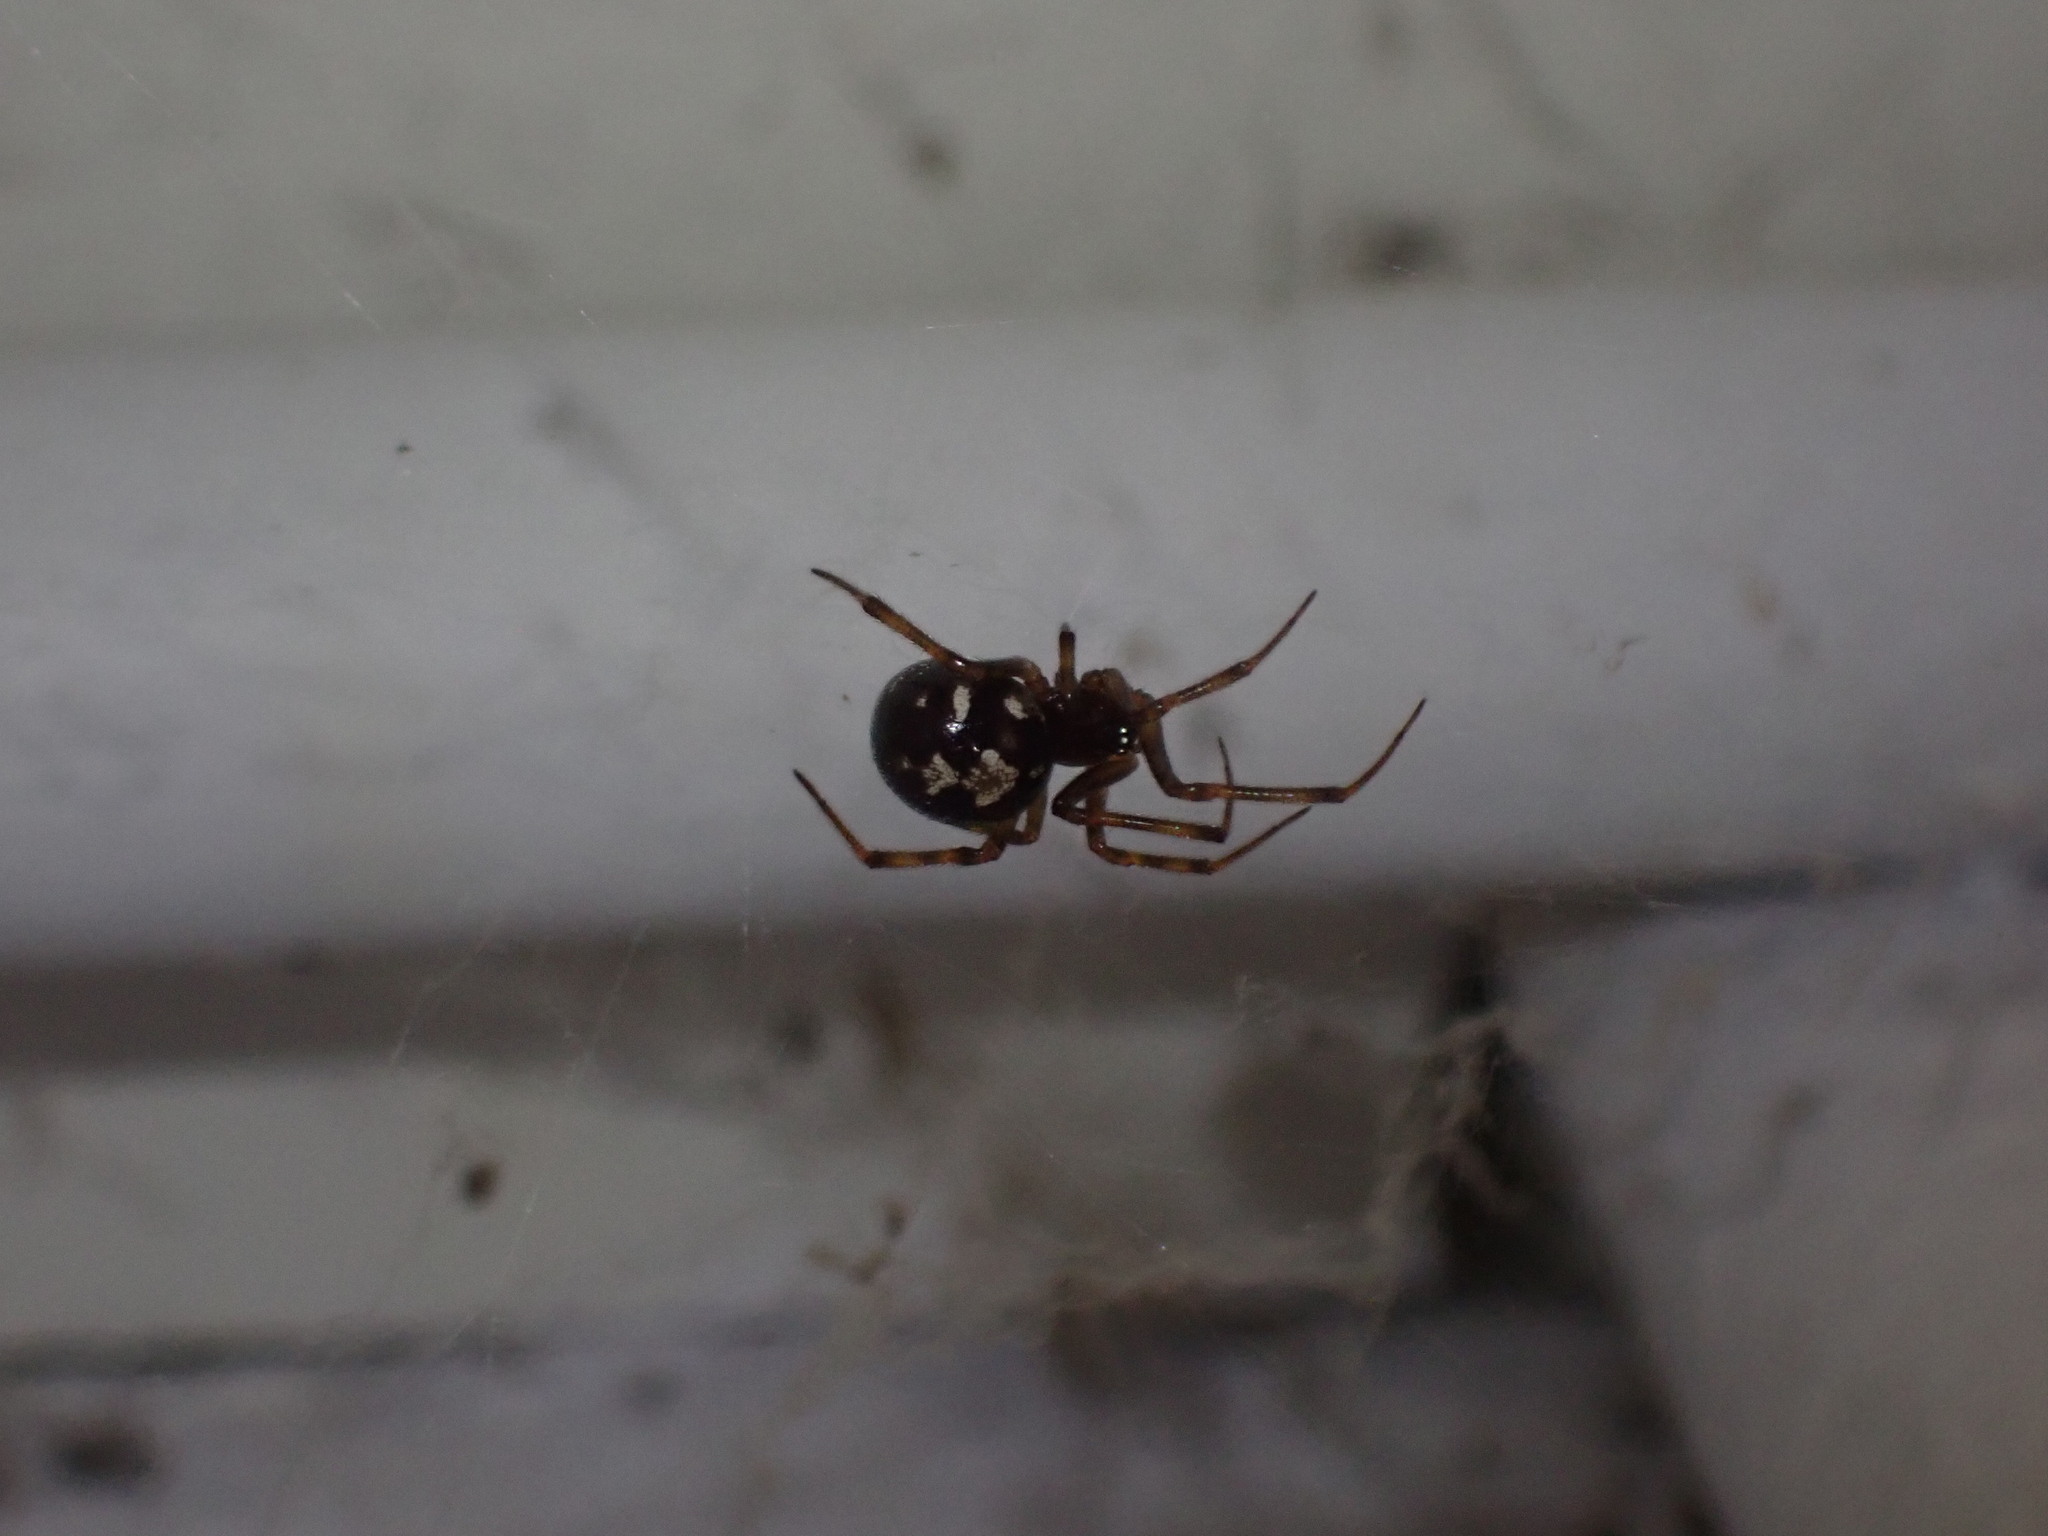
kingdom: Animalia
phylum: Arthropoda
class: Arachnida
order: Araneae
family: Theridiidae
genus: Steatoda
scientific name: Steatoda triangulosa
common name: Triangulate bud spider
